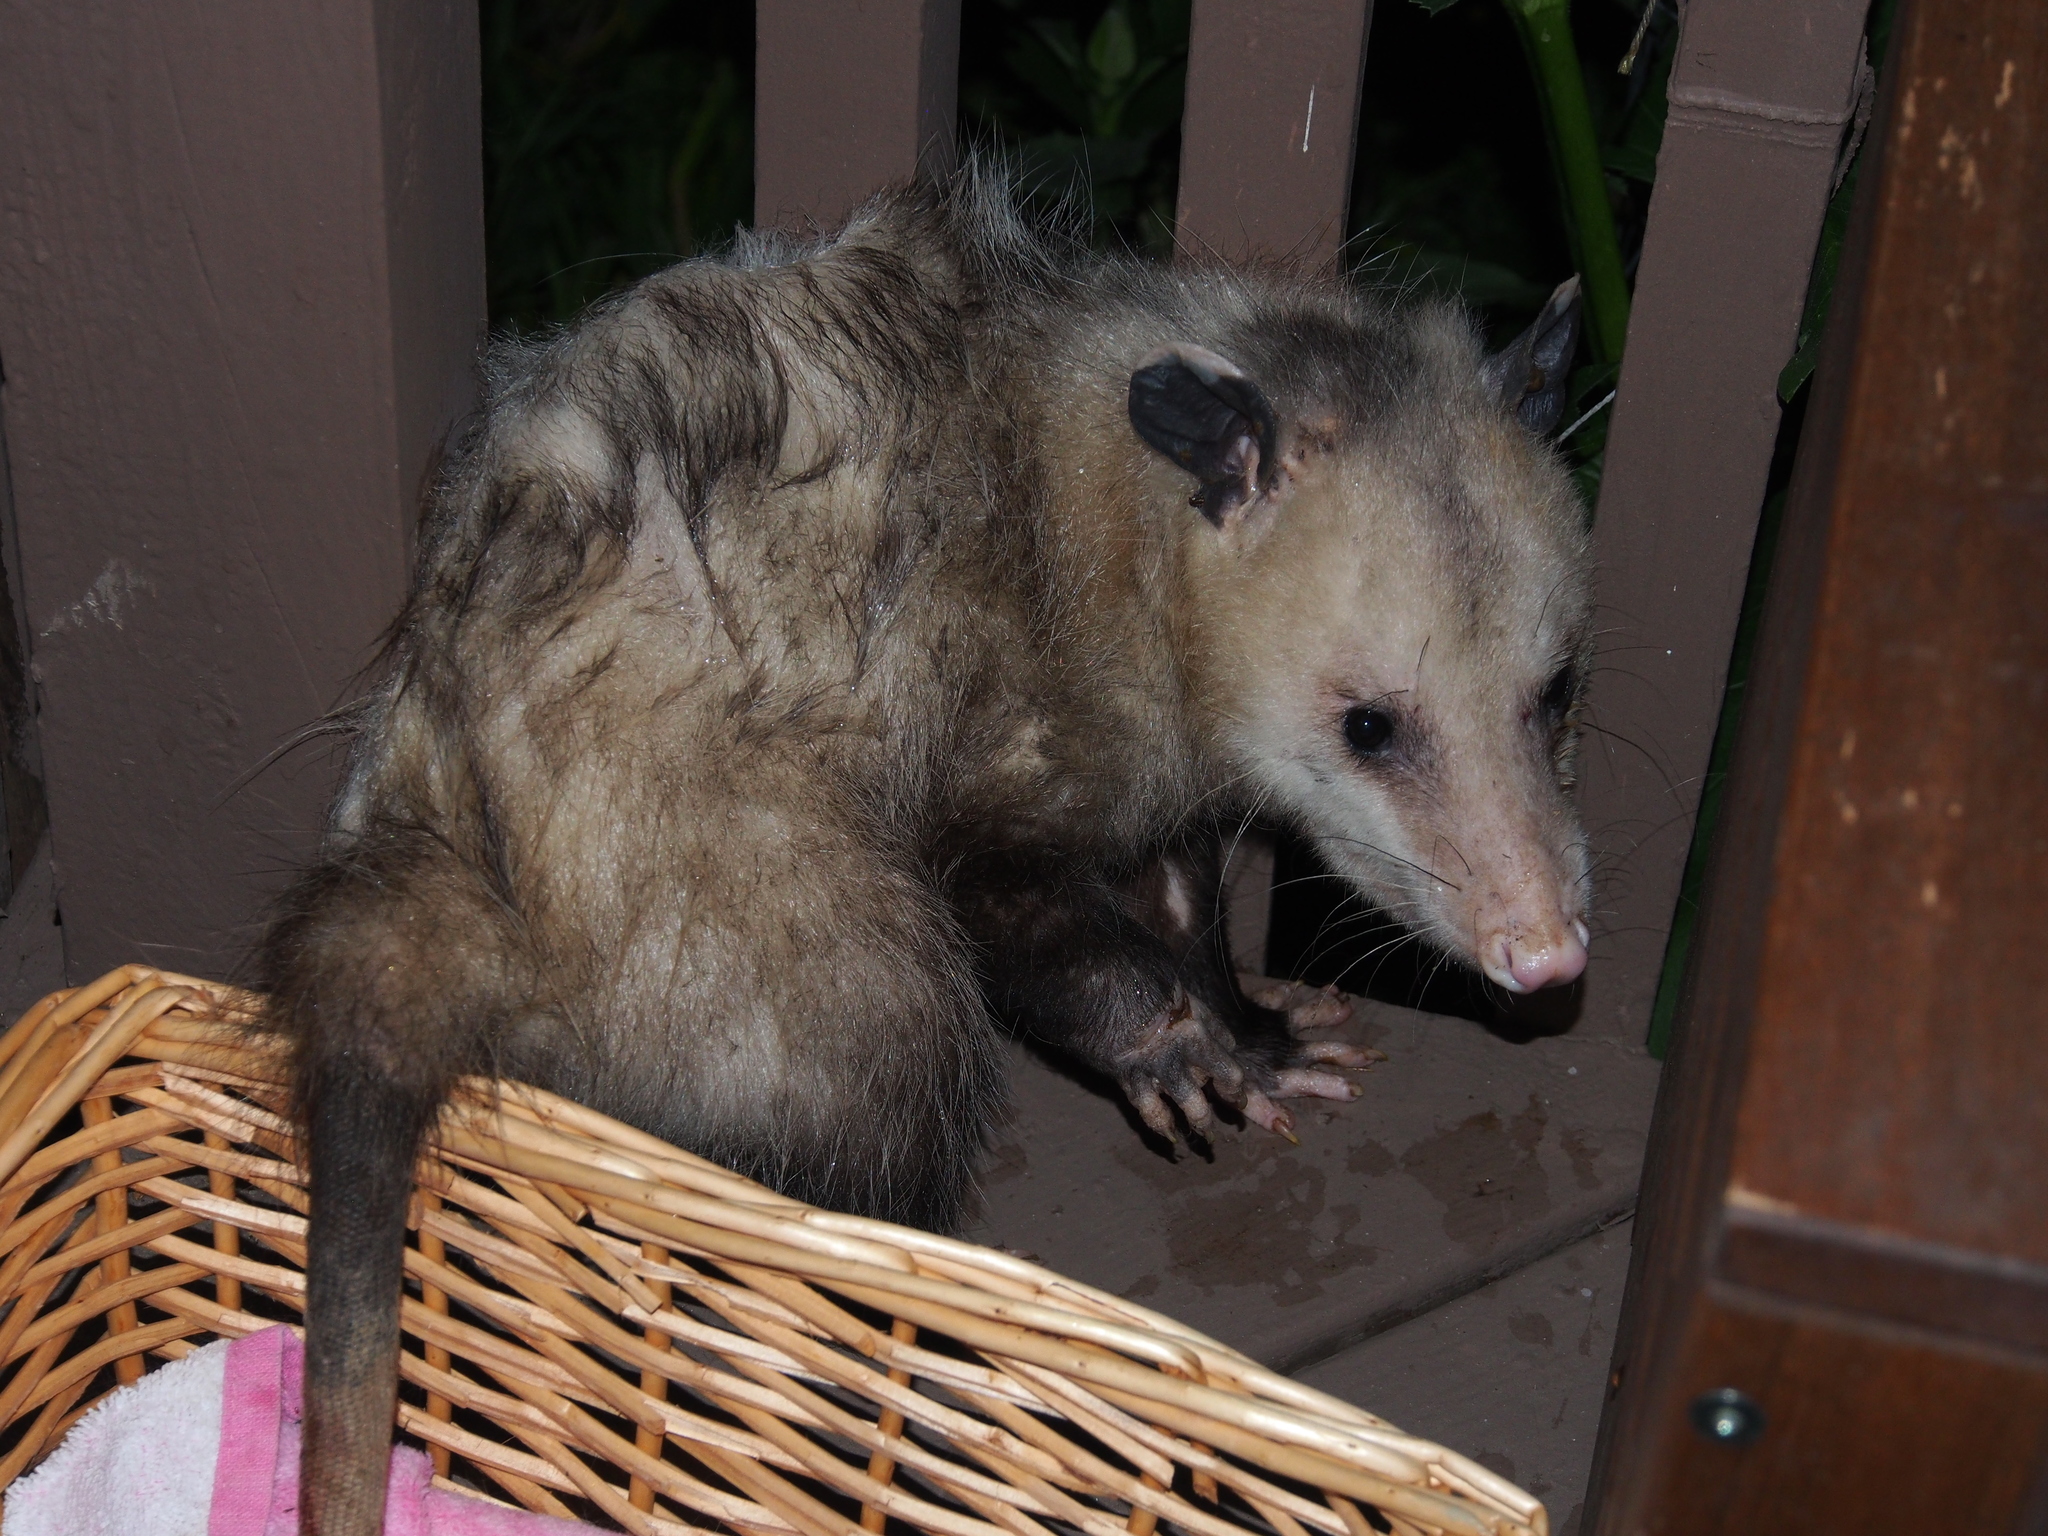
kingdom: Animalia
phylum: Chordata
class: Mammalia
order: Didelphimorphia
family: Didelphidae
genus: Didelphis
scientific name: Didelphis virginiana
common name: Virginia opossum
